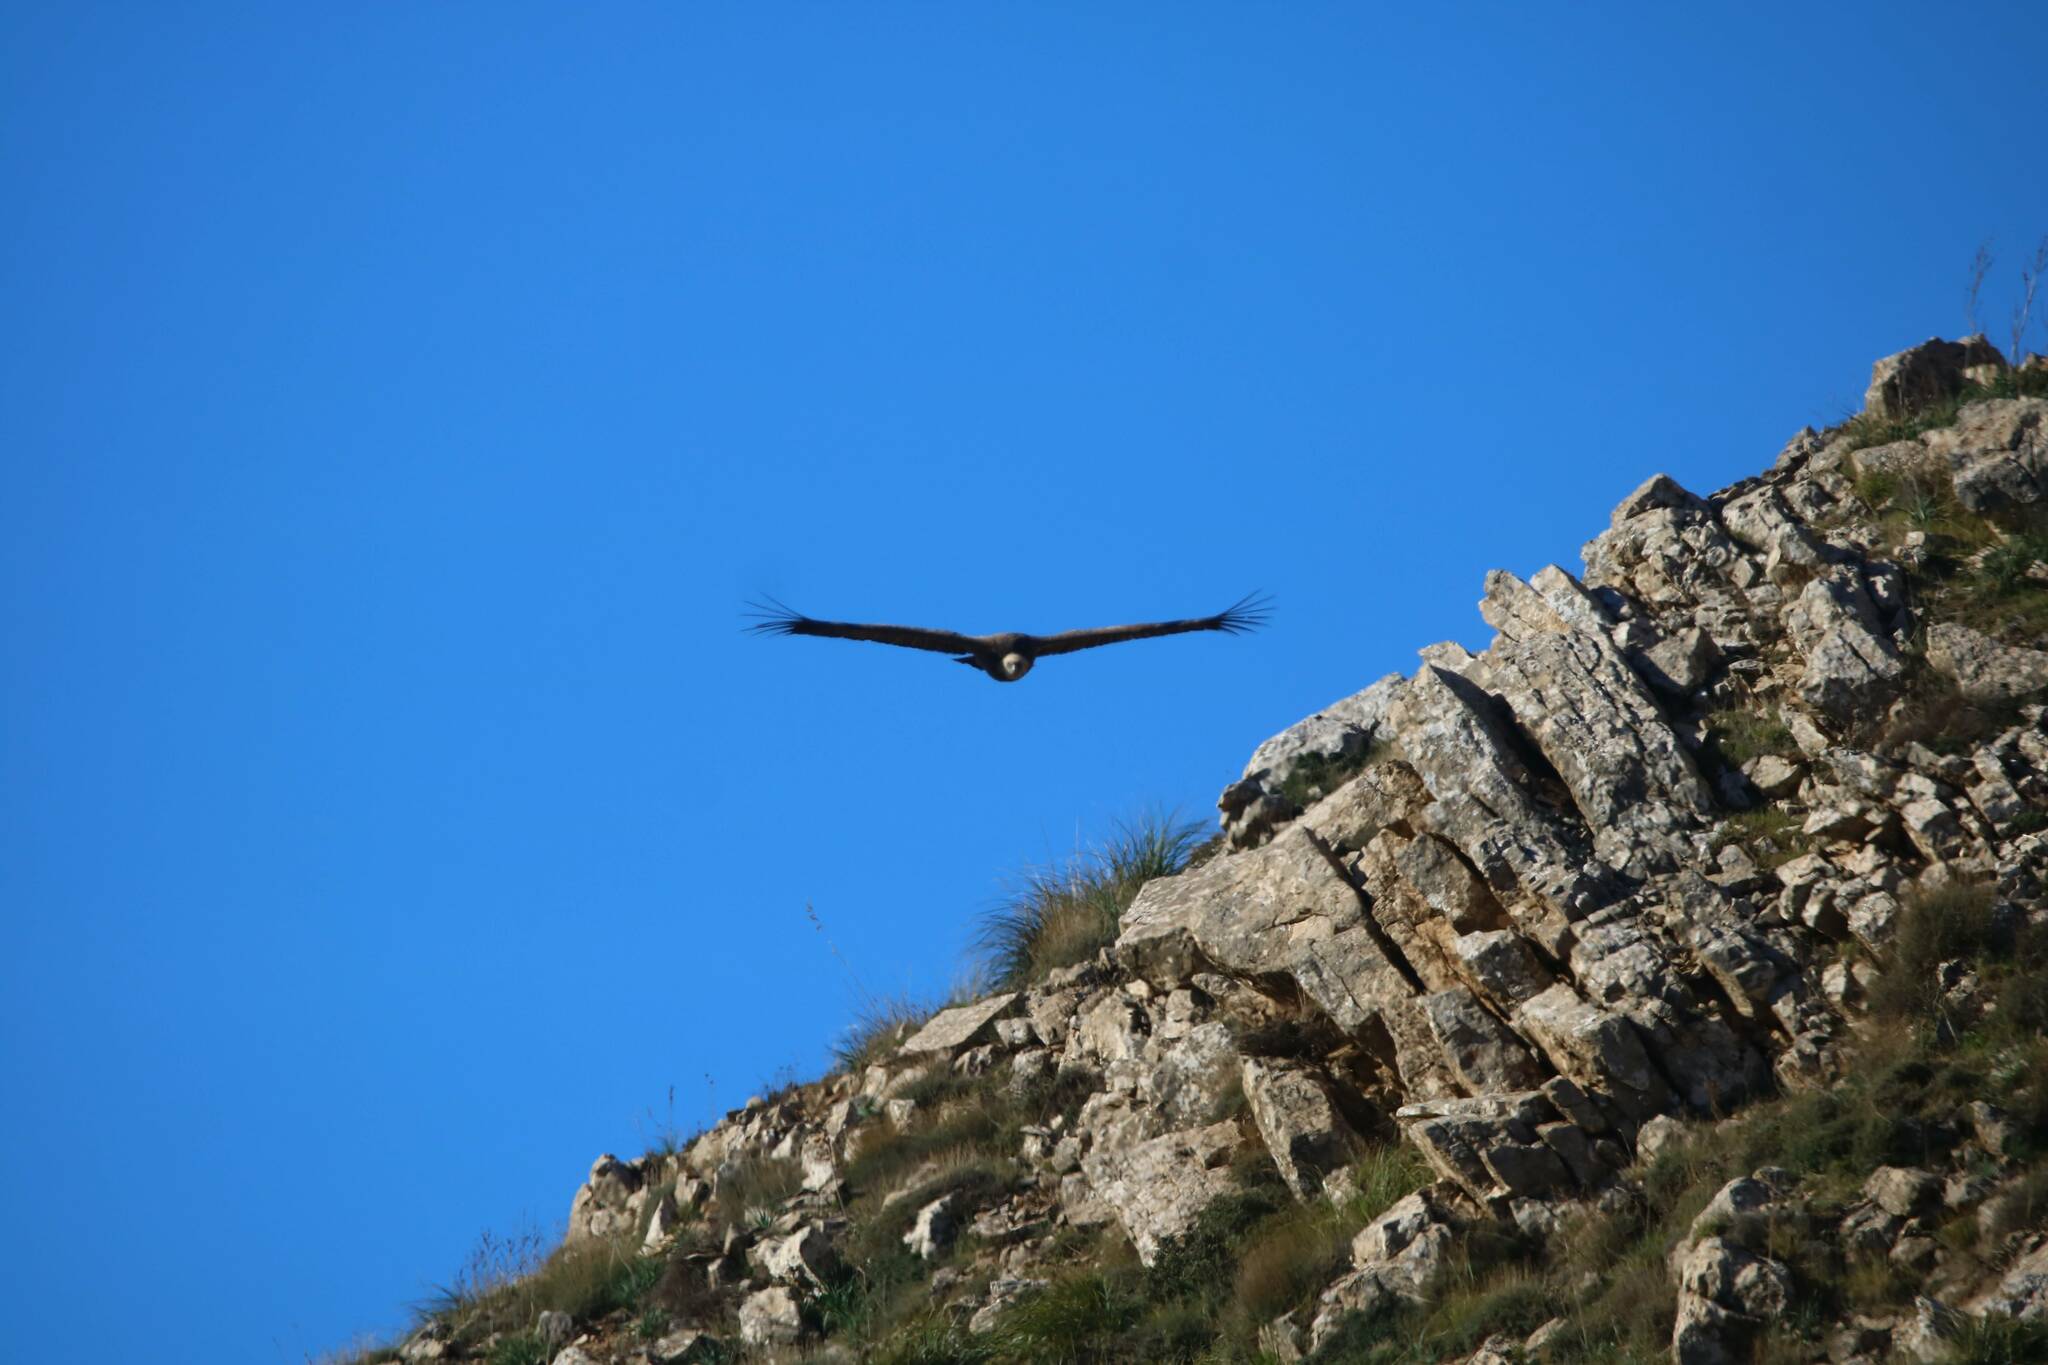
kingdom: Animalia
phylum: Chordata
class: Aves
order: Accipitriformes
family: Accipitridae
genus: Gyps
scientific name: Gyps fulvus
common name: Griffon vulture
